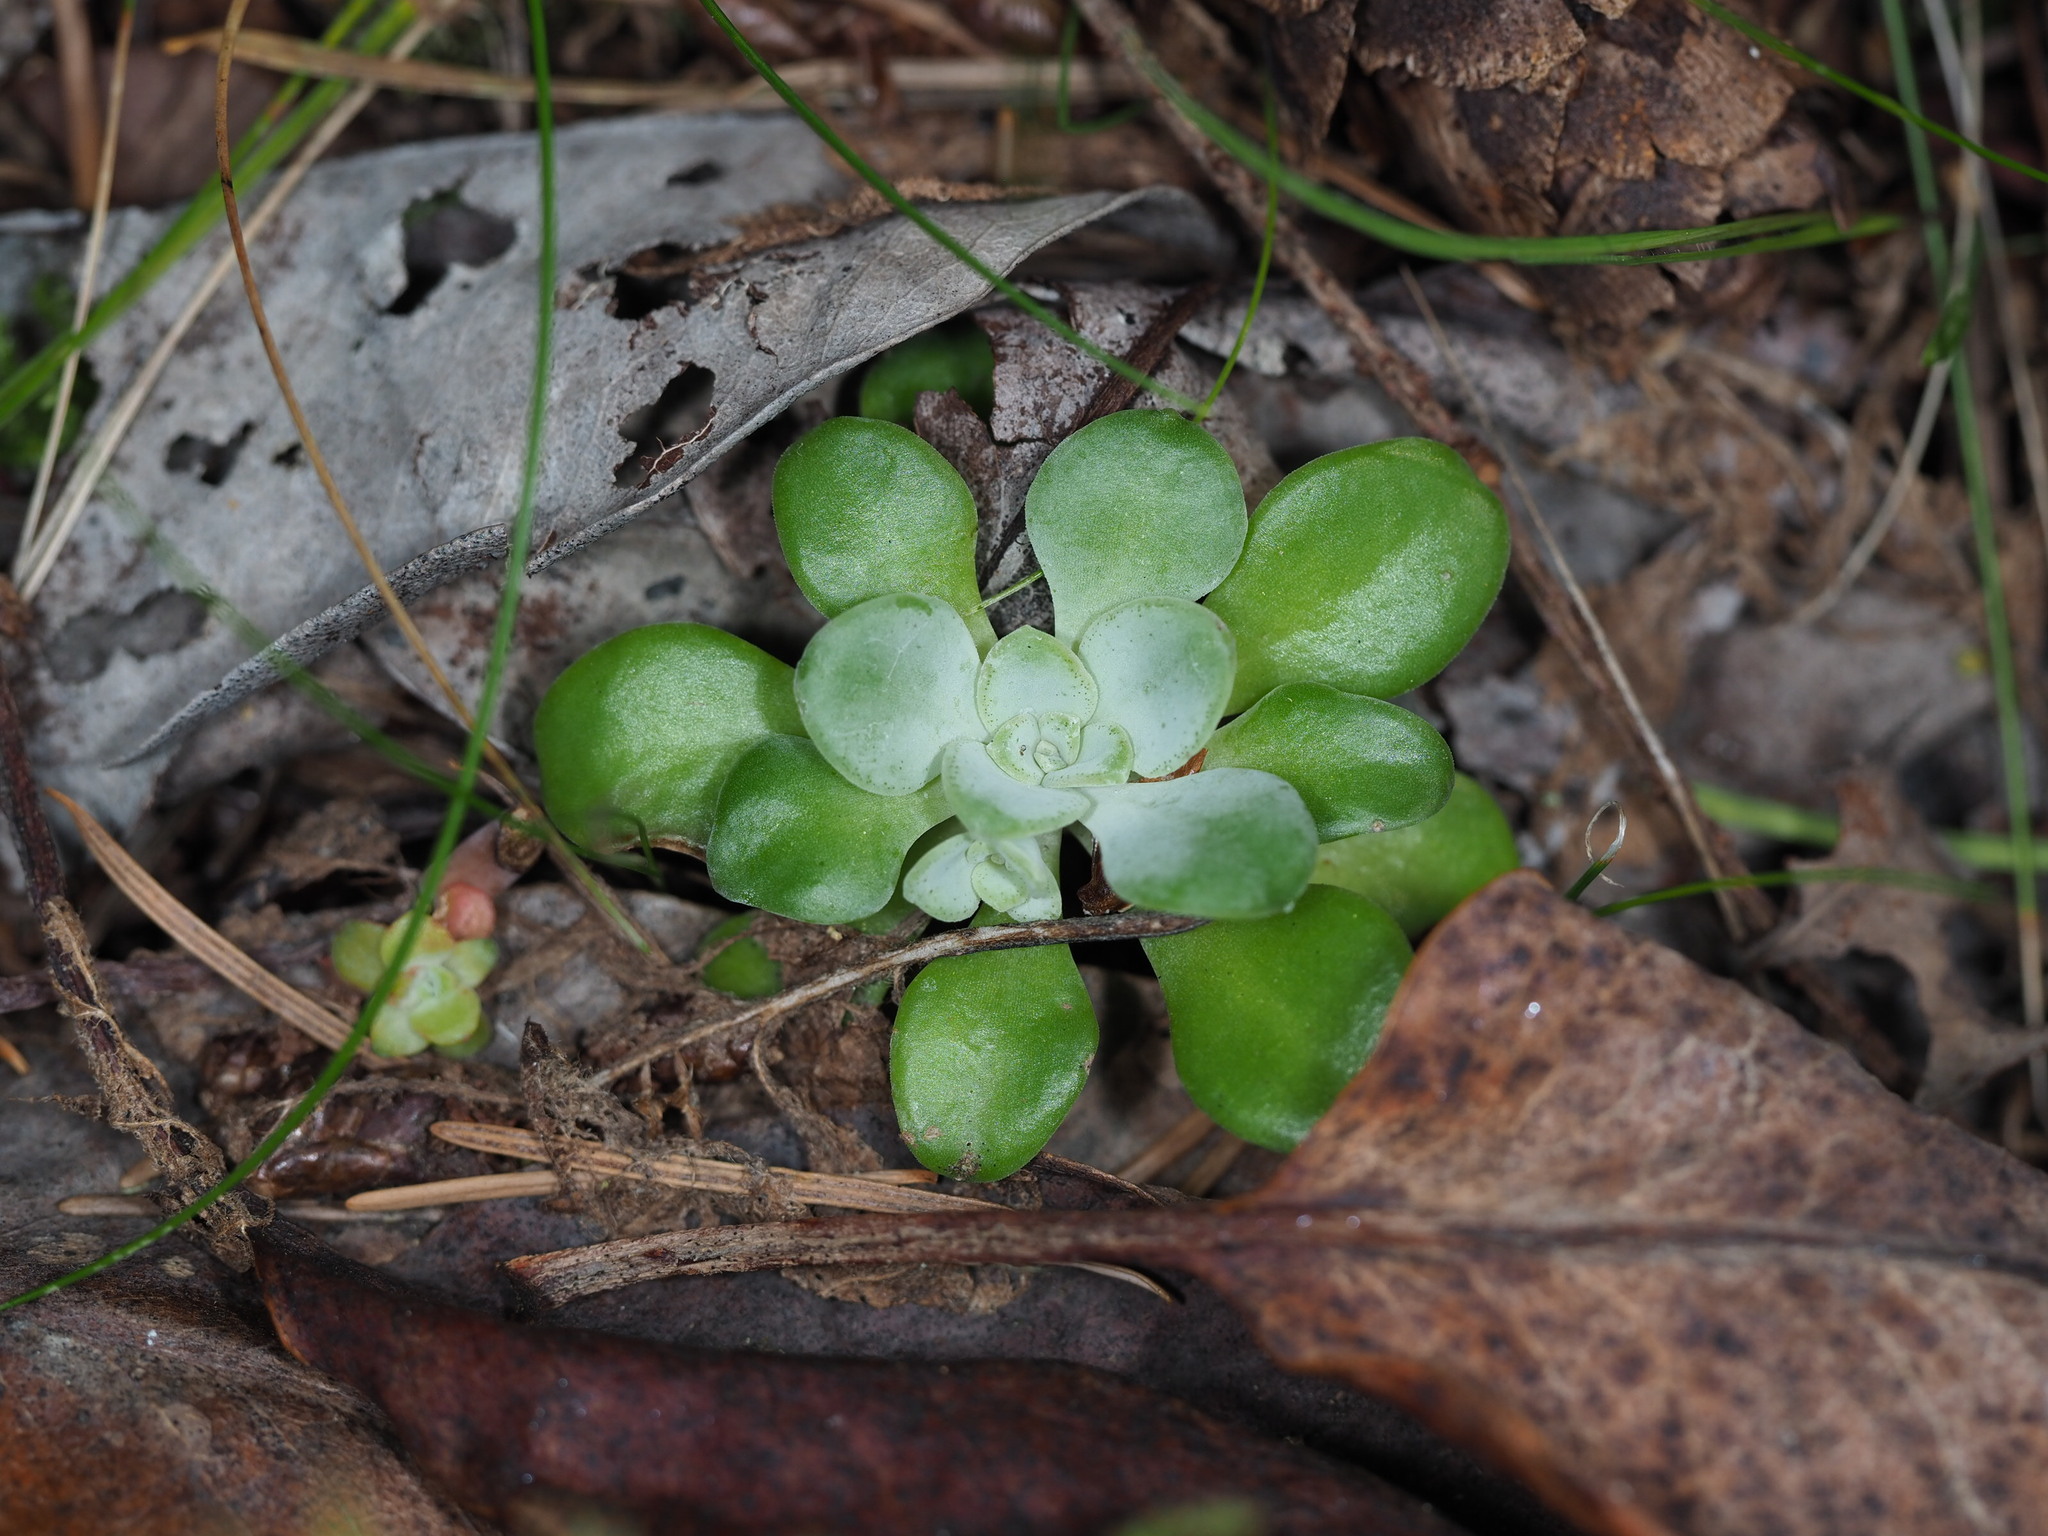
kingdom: Plantae
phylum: Tracheophyta
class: Magnoliopsida
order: Saxifragales
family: Crassulaceae
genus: Sedum
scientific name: Sedum spathulifolium
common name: Colorado stonecrop
